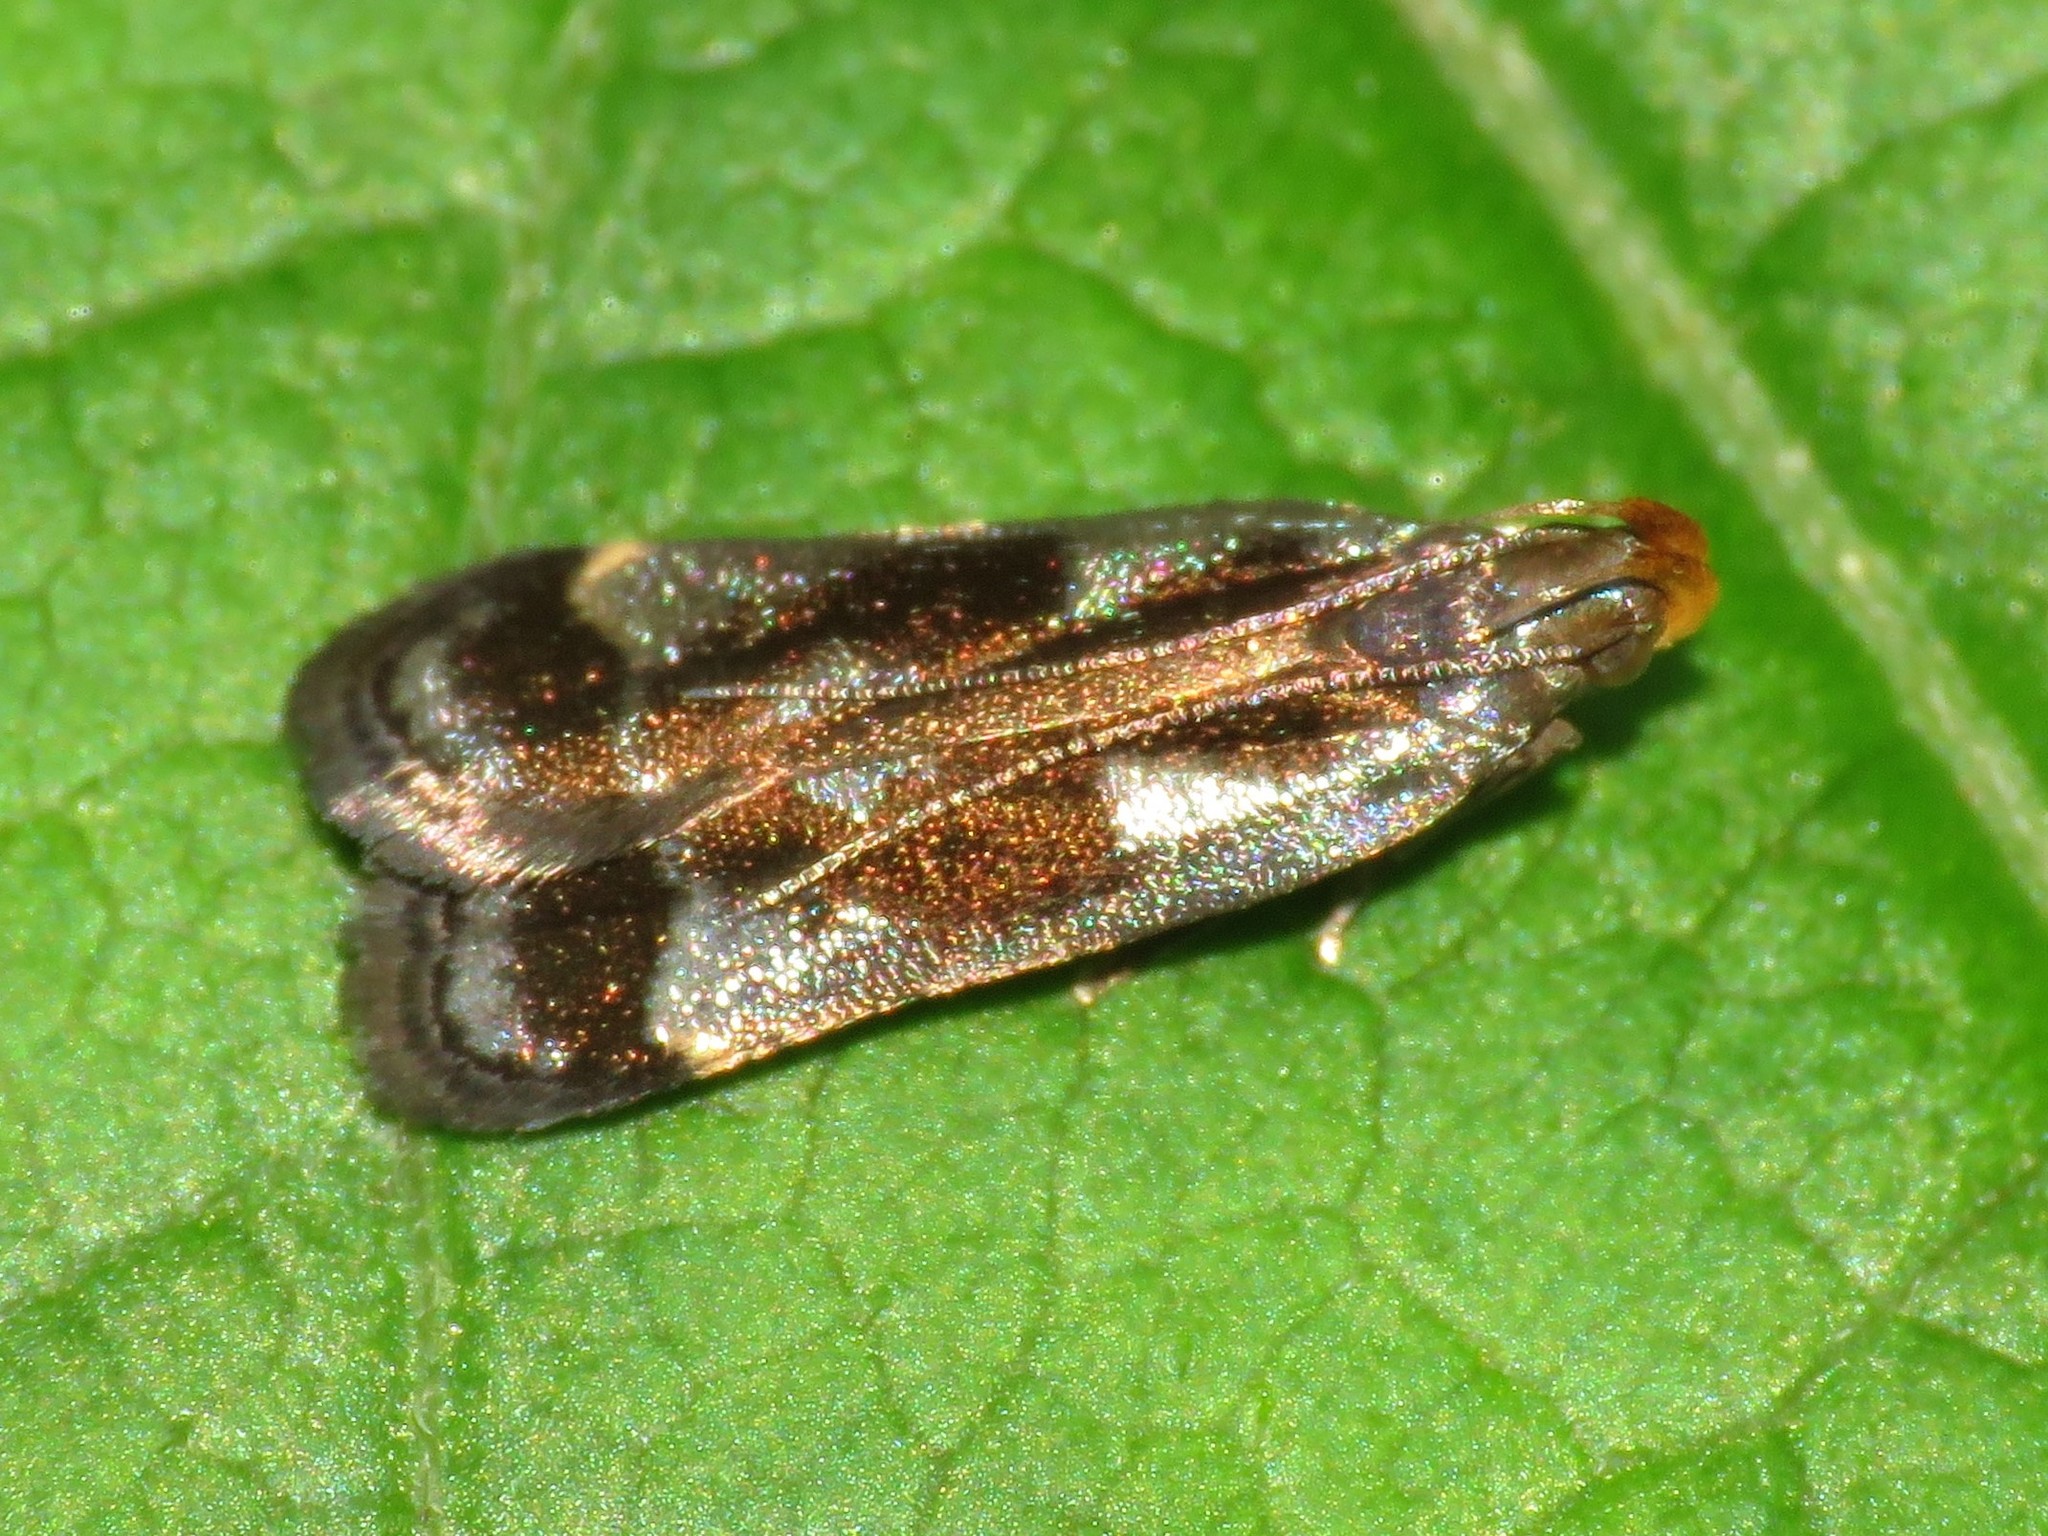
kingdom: Animalia
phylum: Arthropoda
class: Insecta
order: Lepidoptera
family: Gelechiidae
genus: Dichomeris
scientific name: Dichomeris ochripalpella
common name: Shining dichomeris moth
